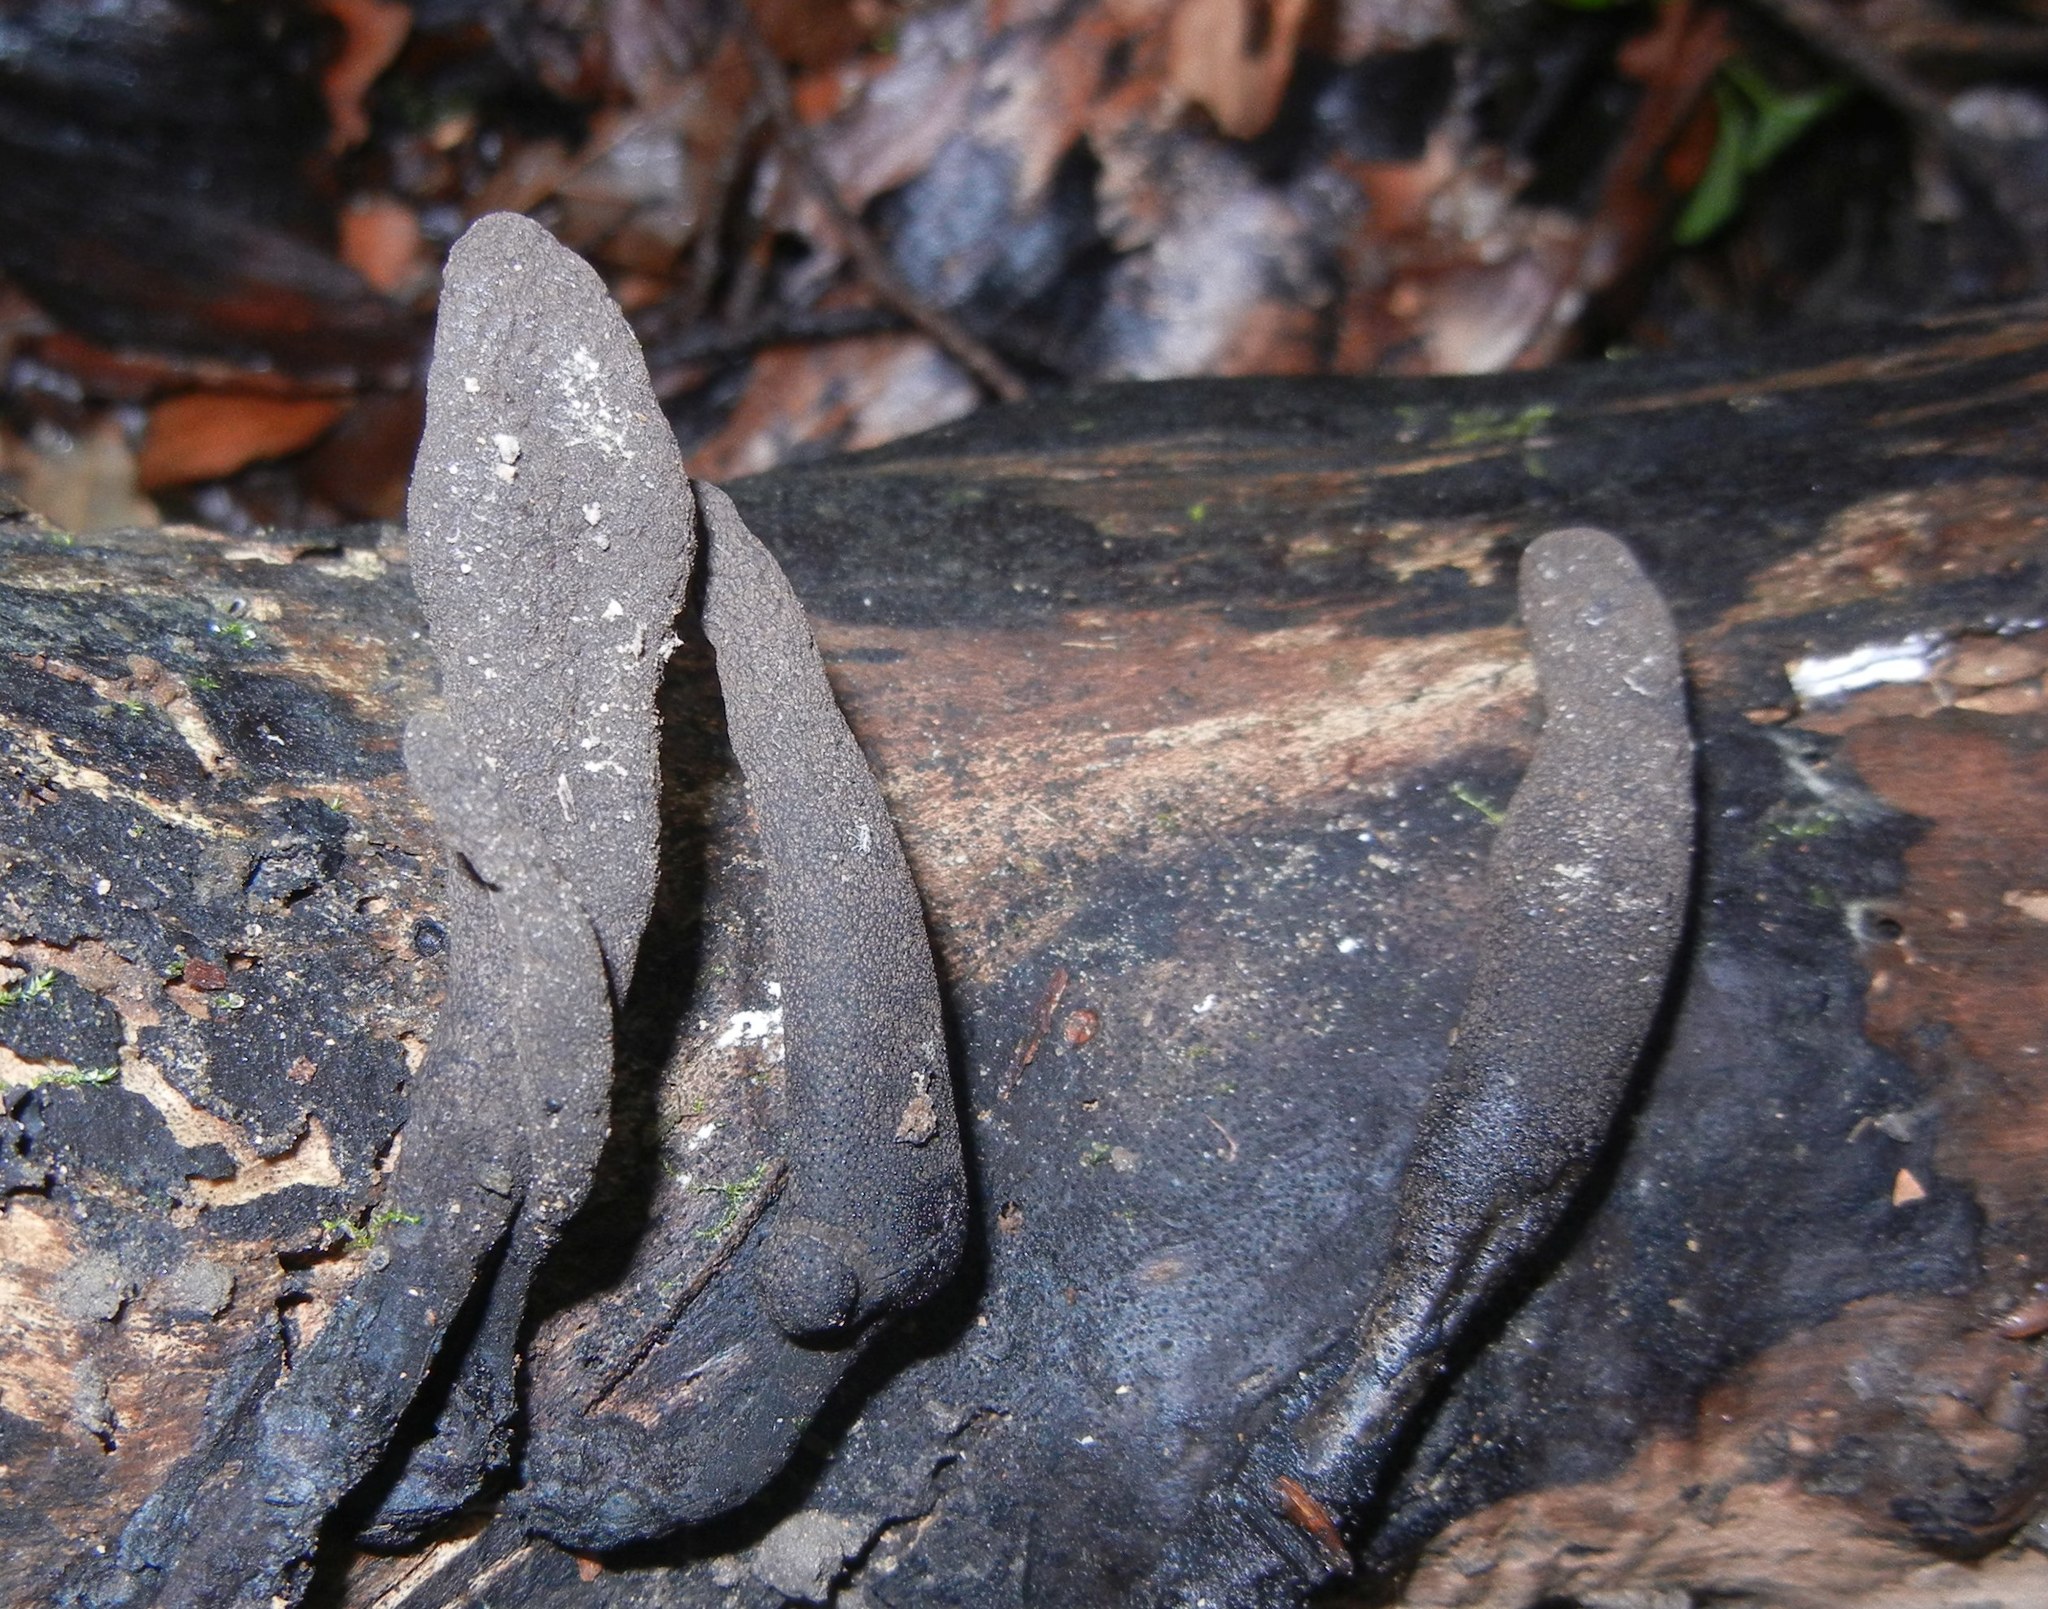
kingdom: Fungi
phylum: Ascomycota
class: Sordariomycetes
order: Xylariales
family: Xylariaceae
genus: Xylaria
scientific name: Xylaria polymorpha
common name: Dead man's fingers
